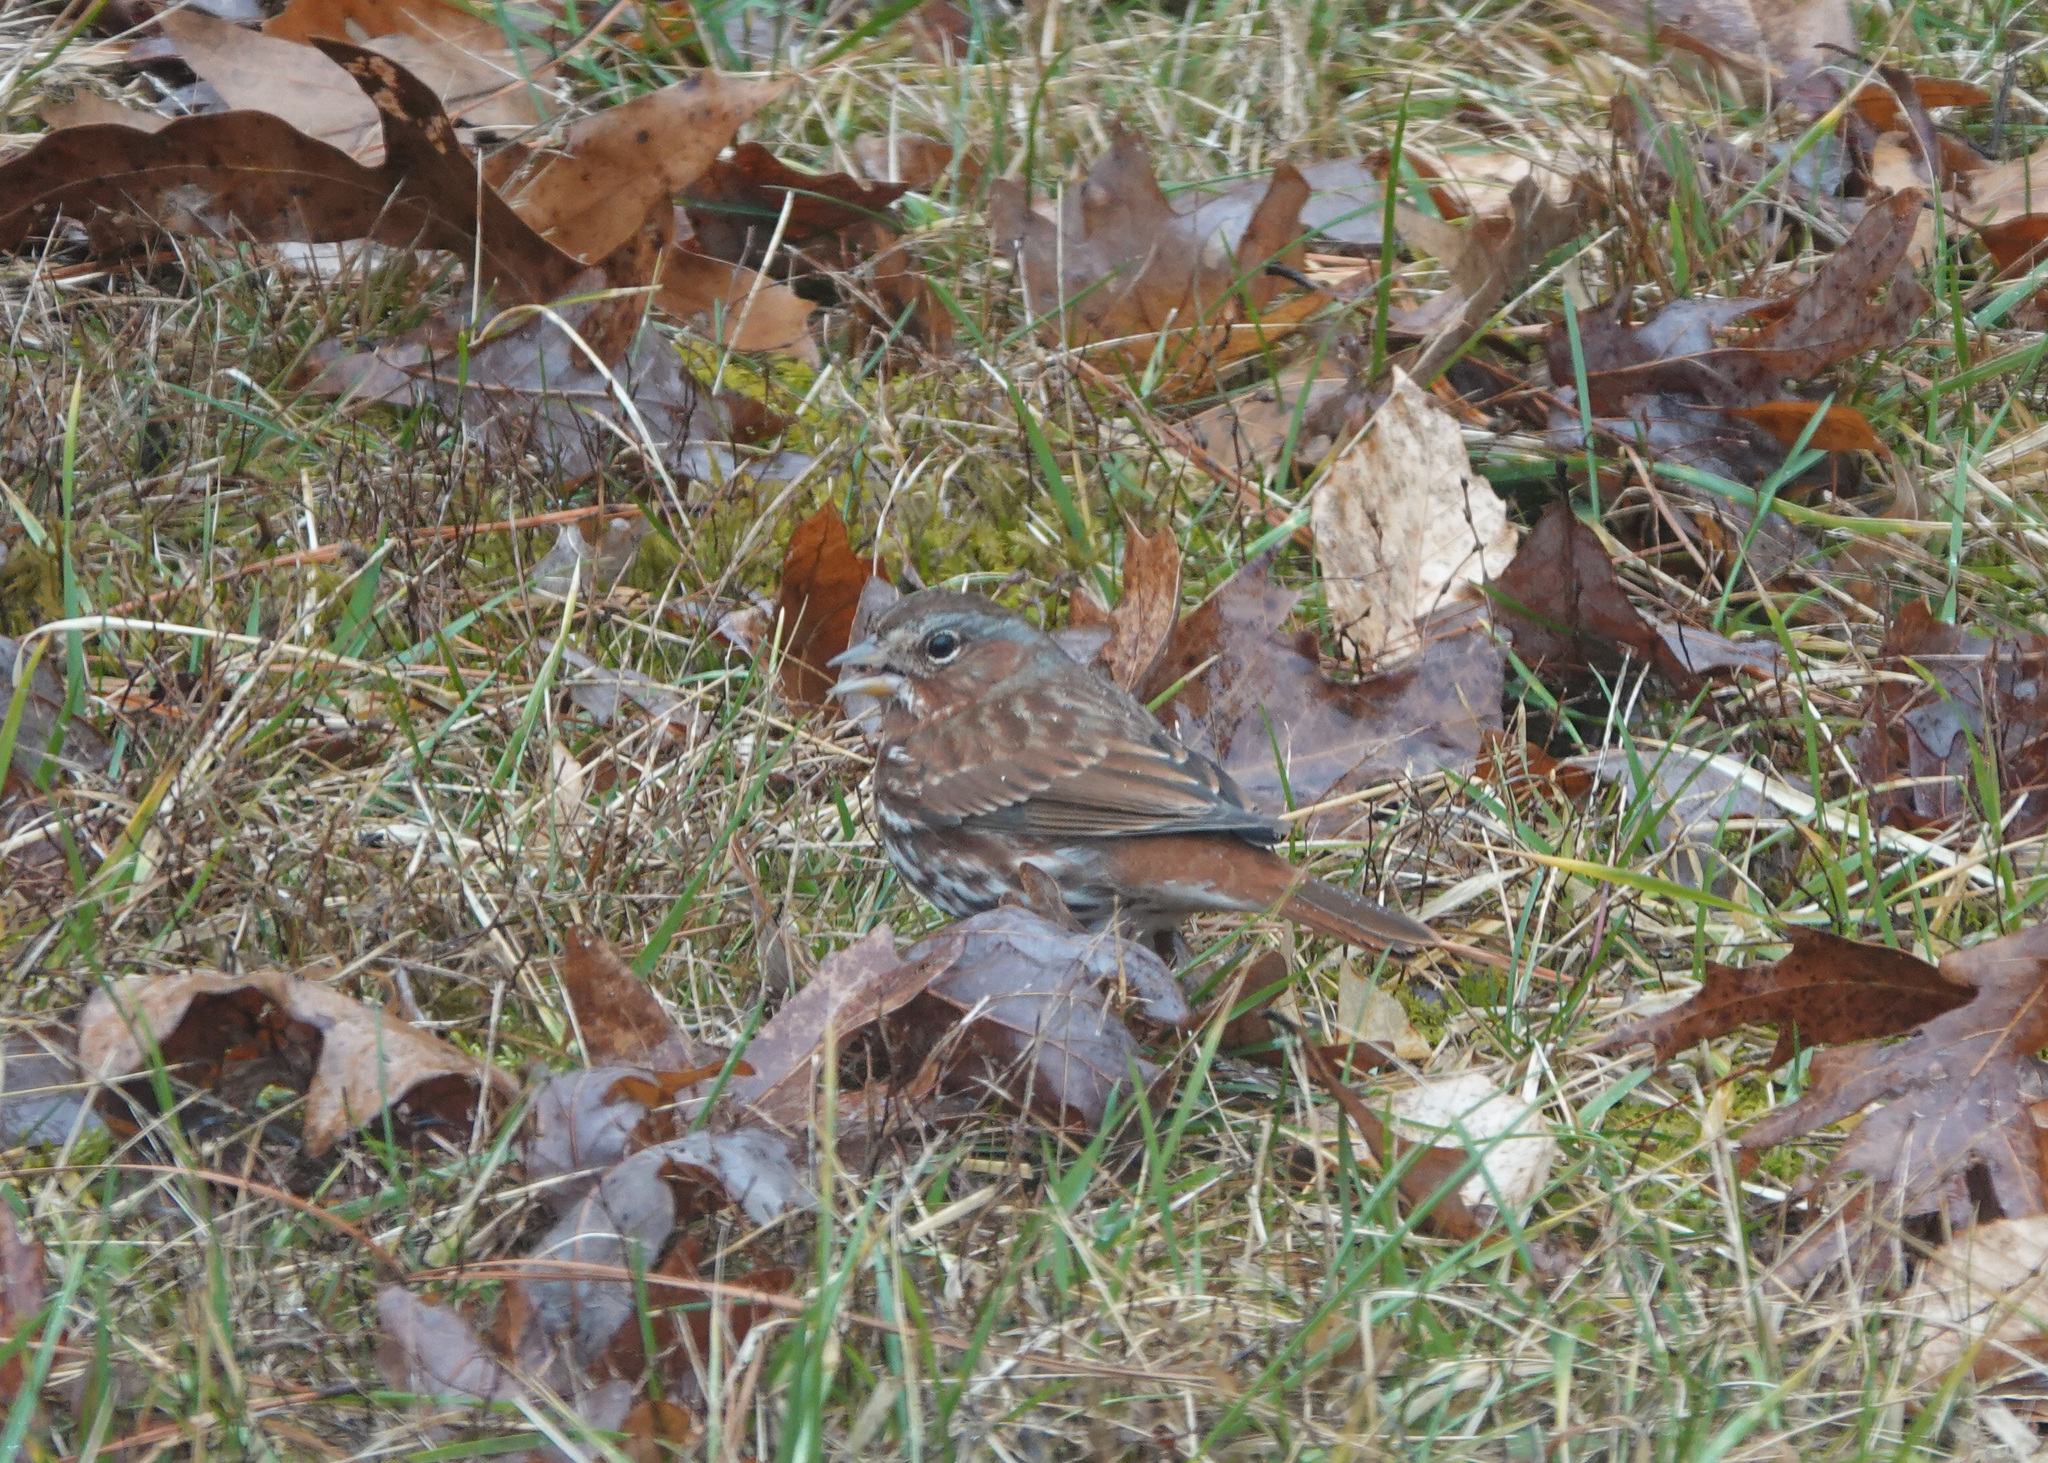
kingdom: Animalia
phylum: Chordata
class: Aves
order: Passeriformes
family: Passerellidae
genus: Passerella
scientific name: Passerella iliaca
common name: Fox sparrow
